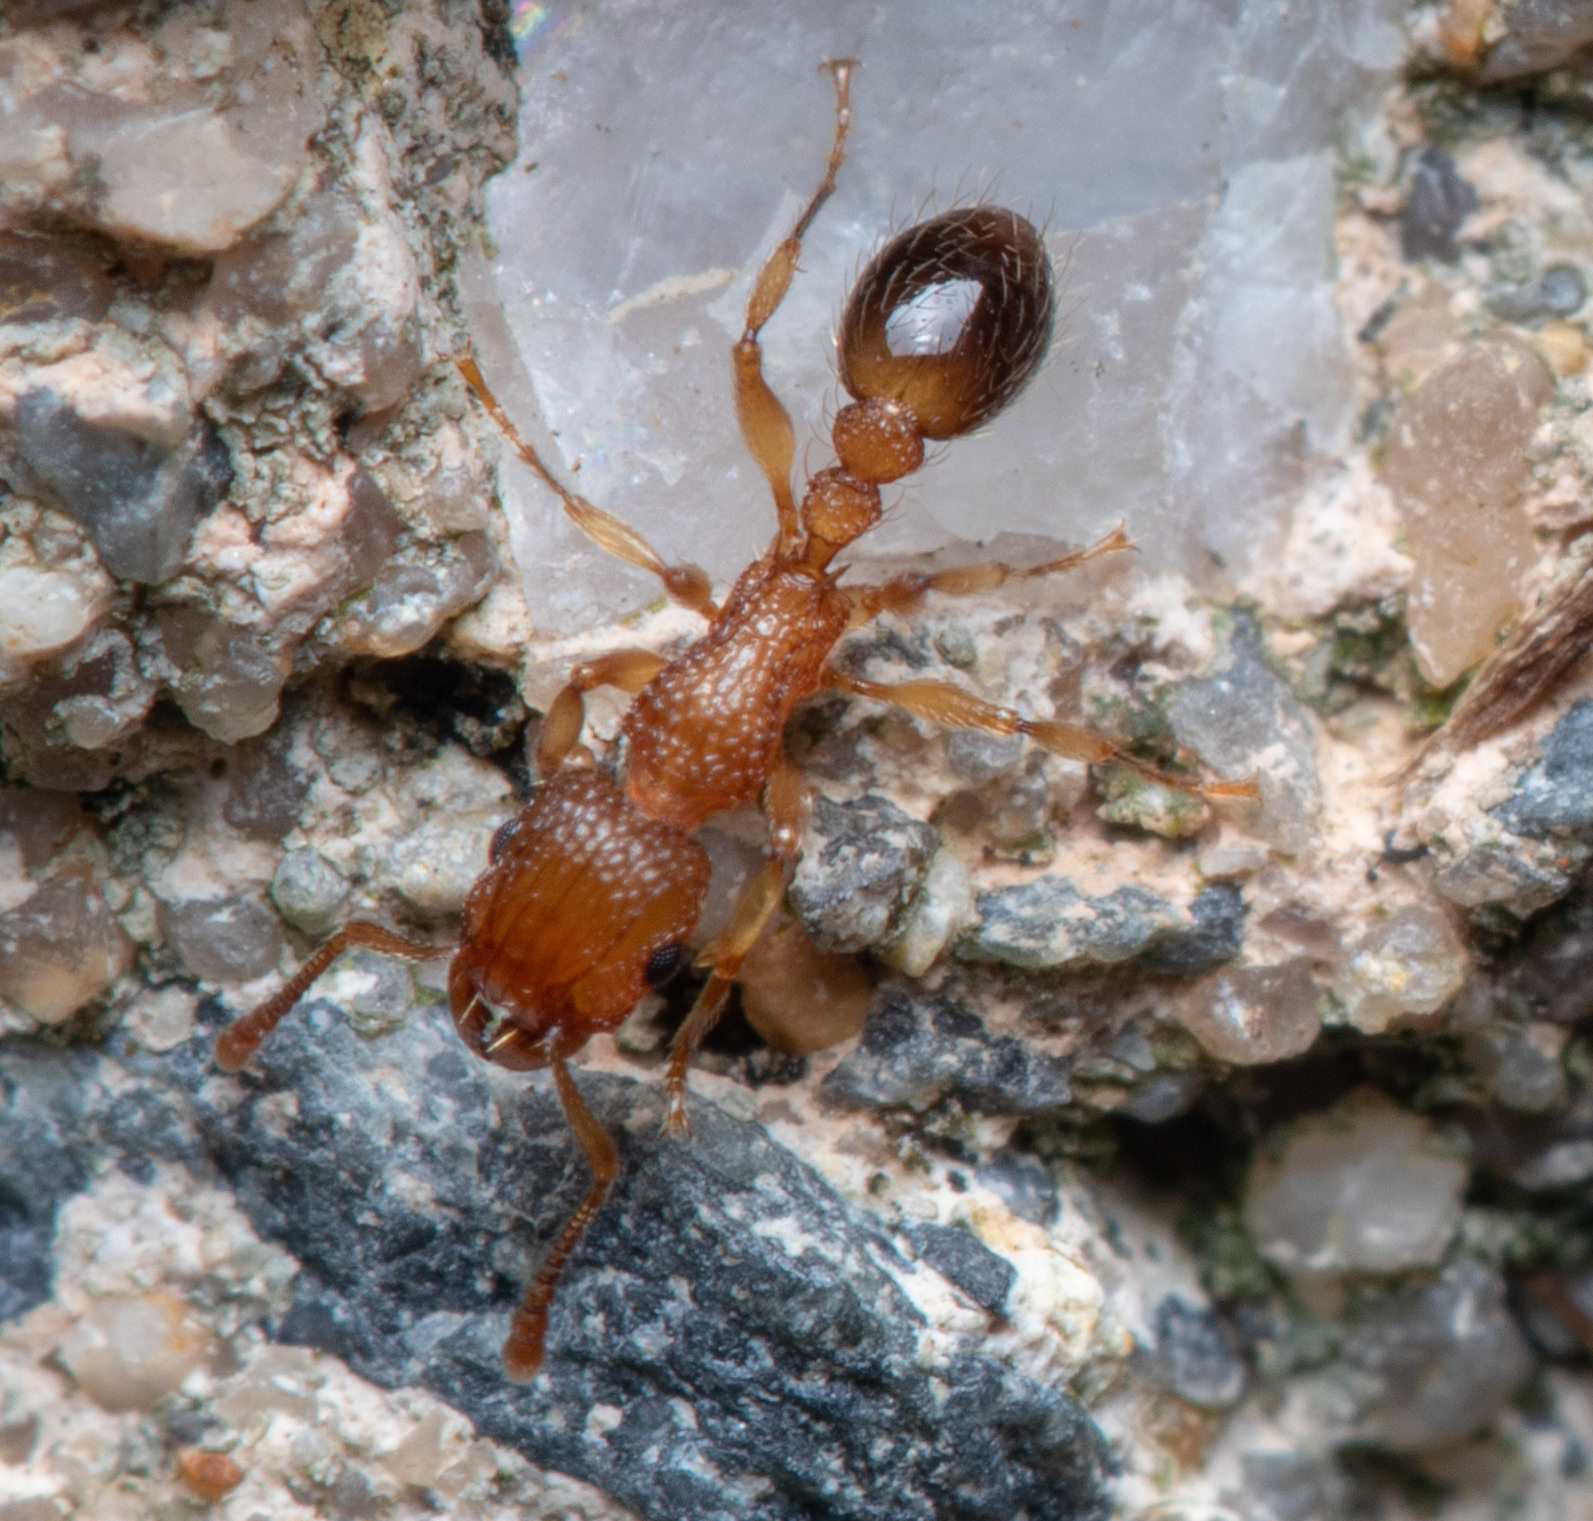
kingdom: Animalia
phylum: Arthropoda
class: Insecta
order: Hymenoptera
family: Formicidae
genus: Tetramorium
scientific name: Tetramorium bicarinatum
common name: Guinea ant
